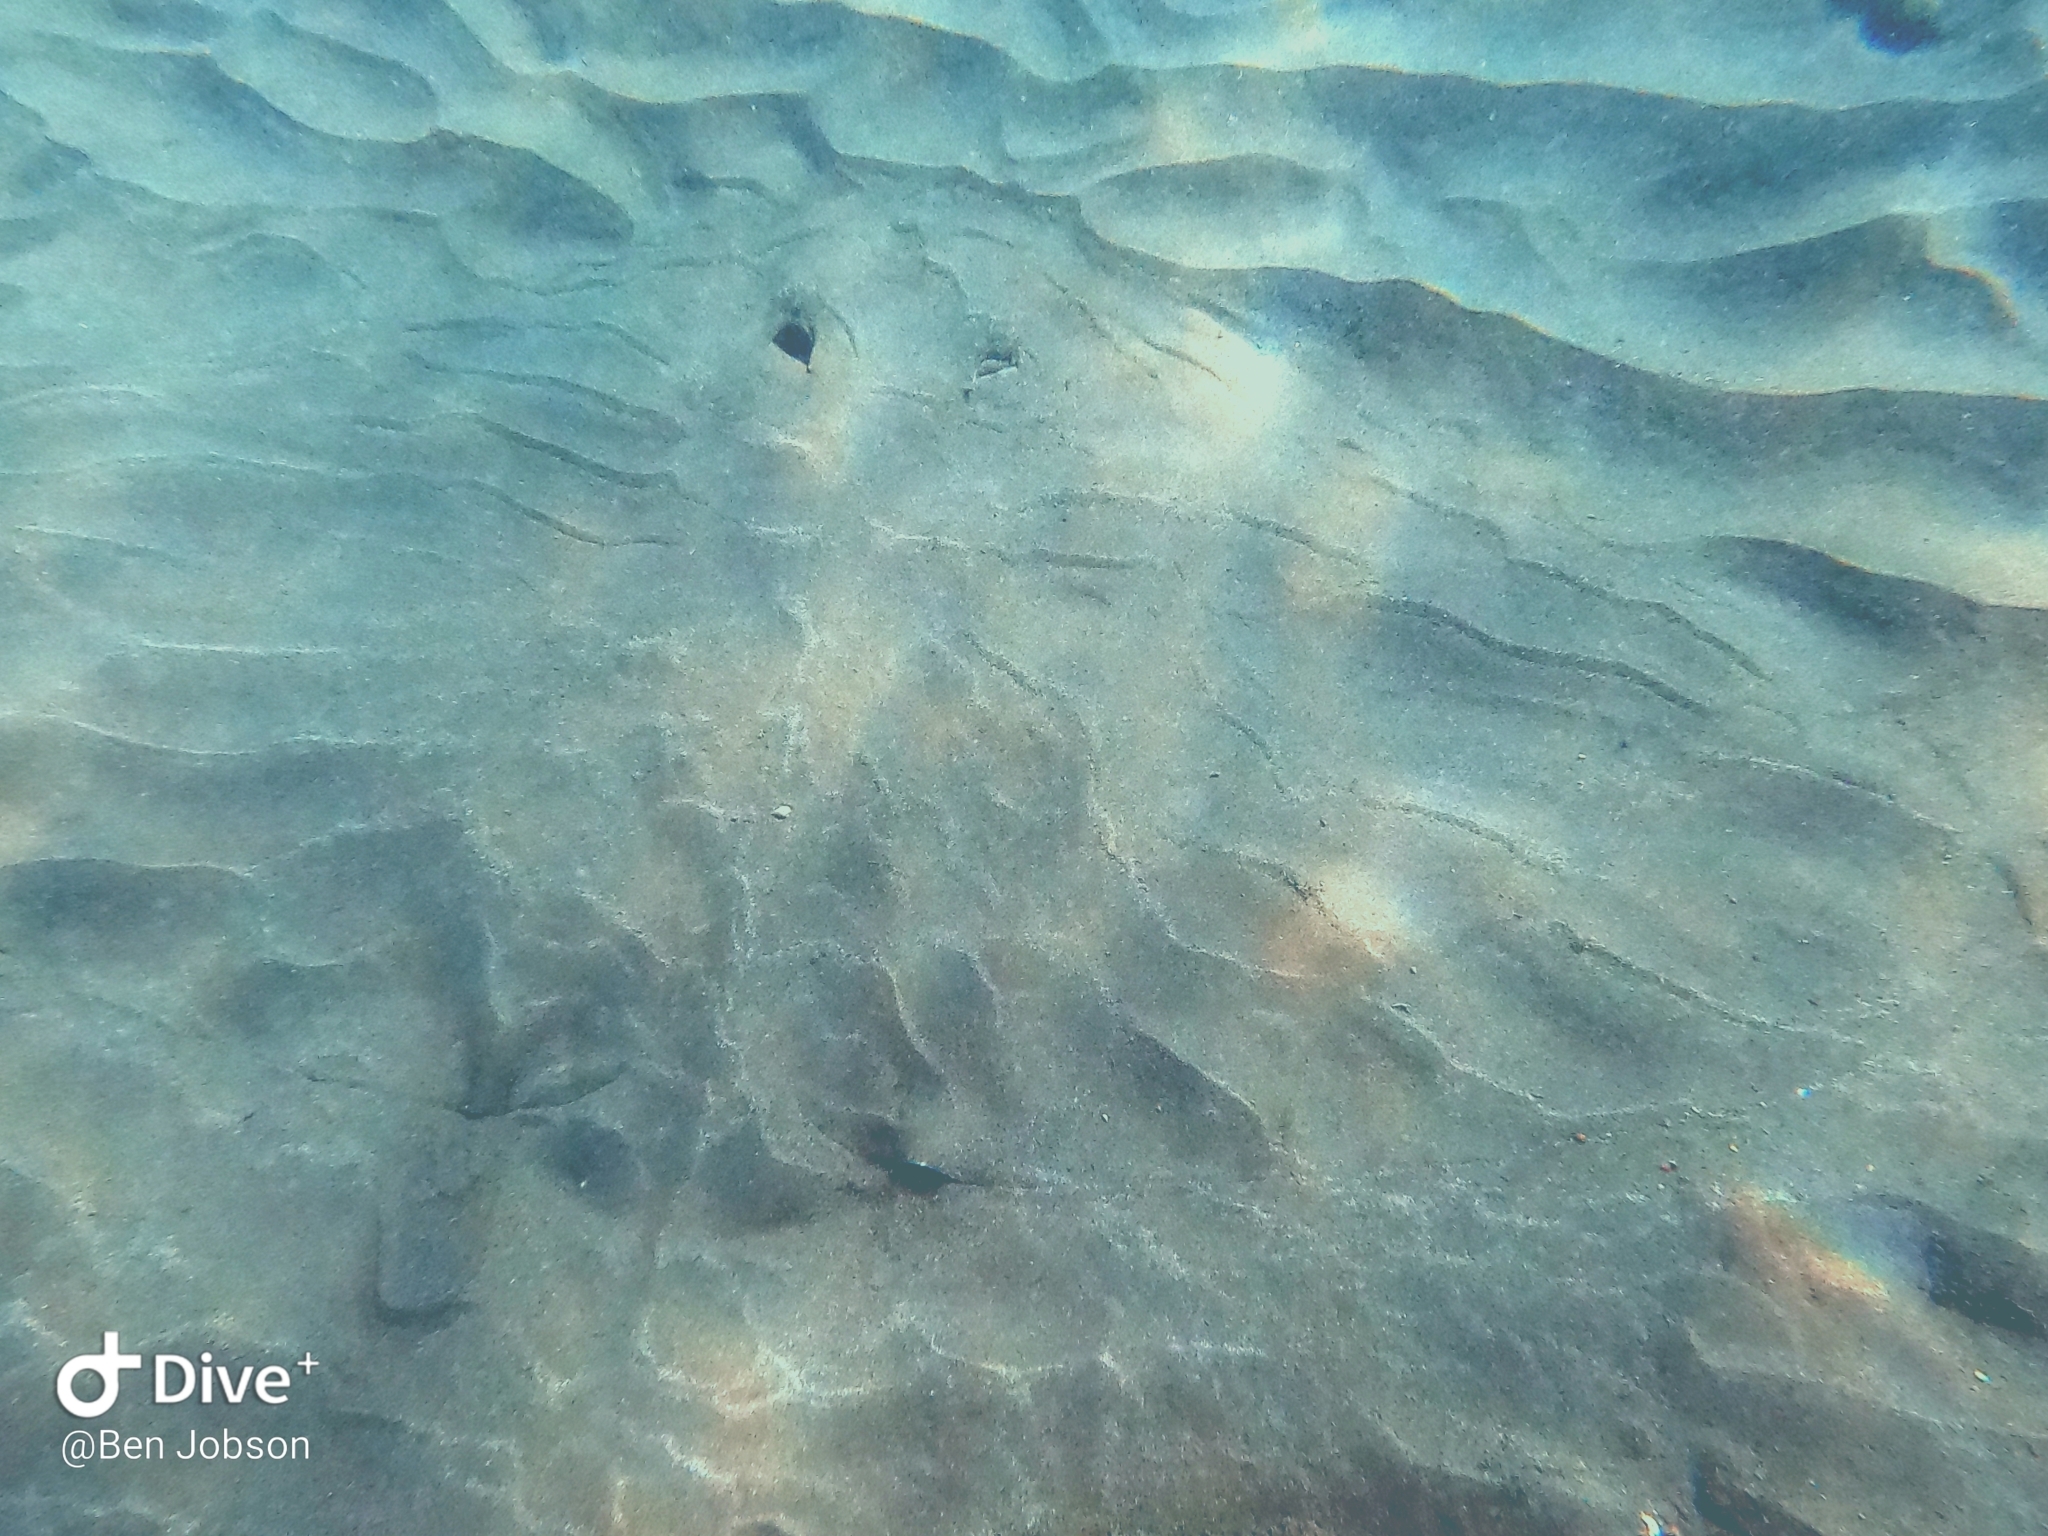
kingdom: Animalia
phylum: Chordata
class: Elasmobranchii
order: Myliobatiformes
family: Gymnuridae
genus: Gymnura
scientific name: Gymnura altavela
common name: Spiny butterfly ray
